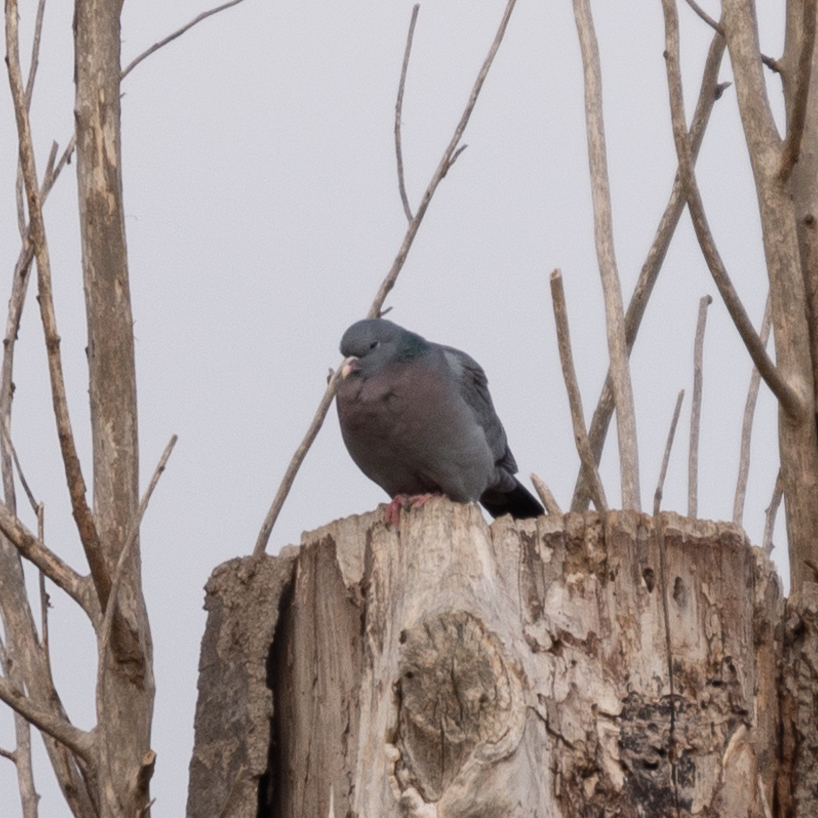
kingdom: Animalia
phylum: Chordata
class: Aves
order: Columbiformes
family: Columbidae
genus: Columba
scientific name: Columba oenas
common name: Stock dove
